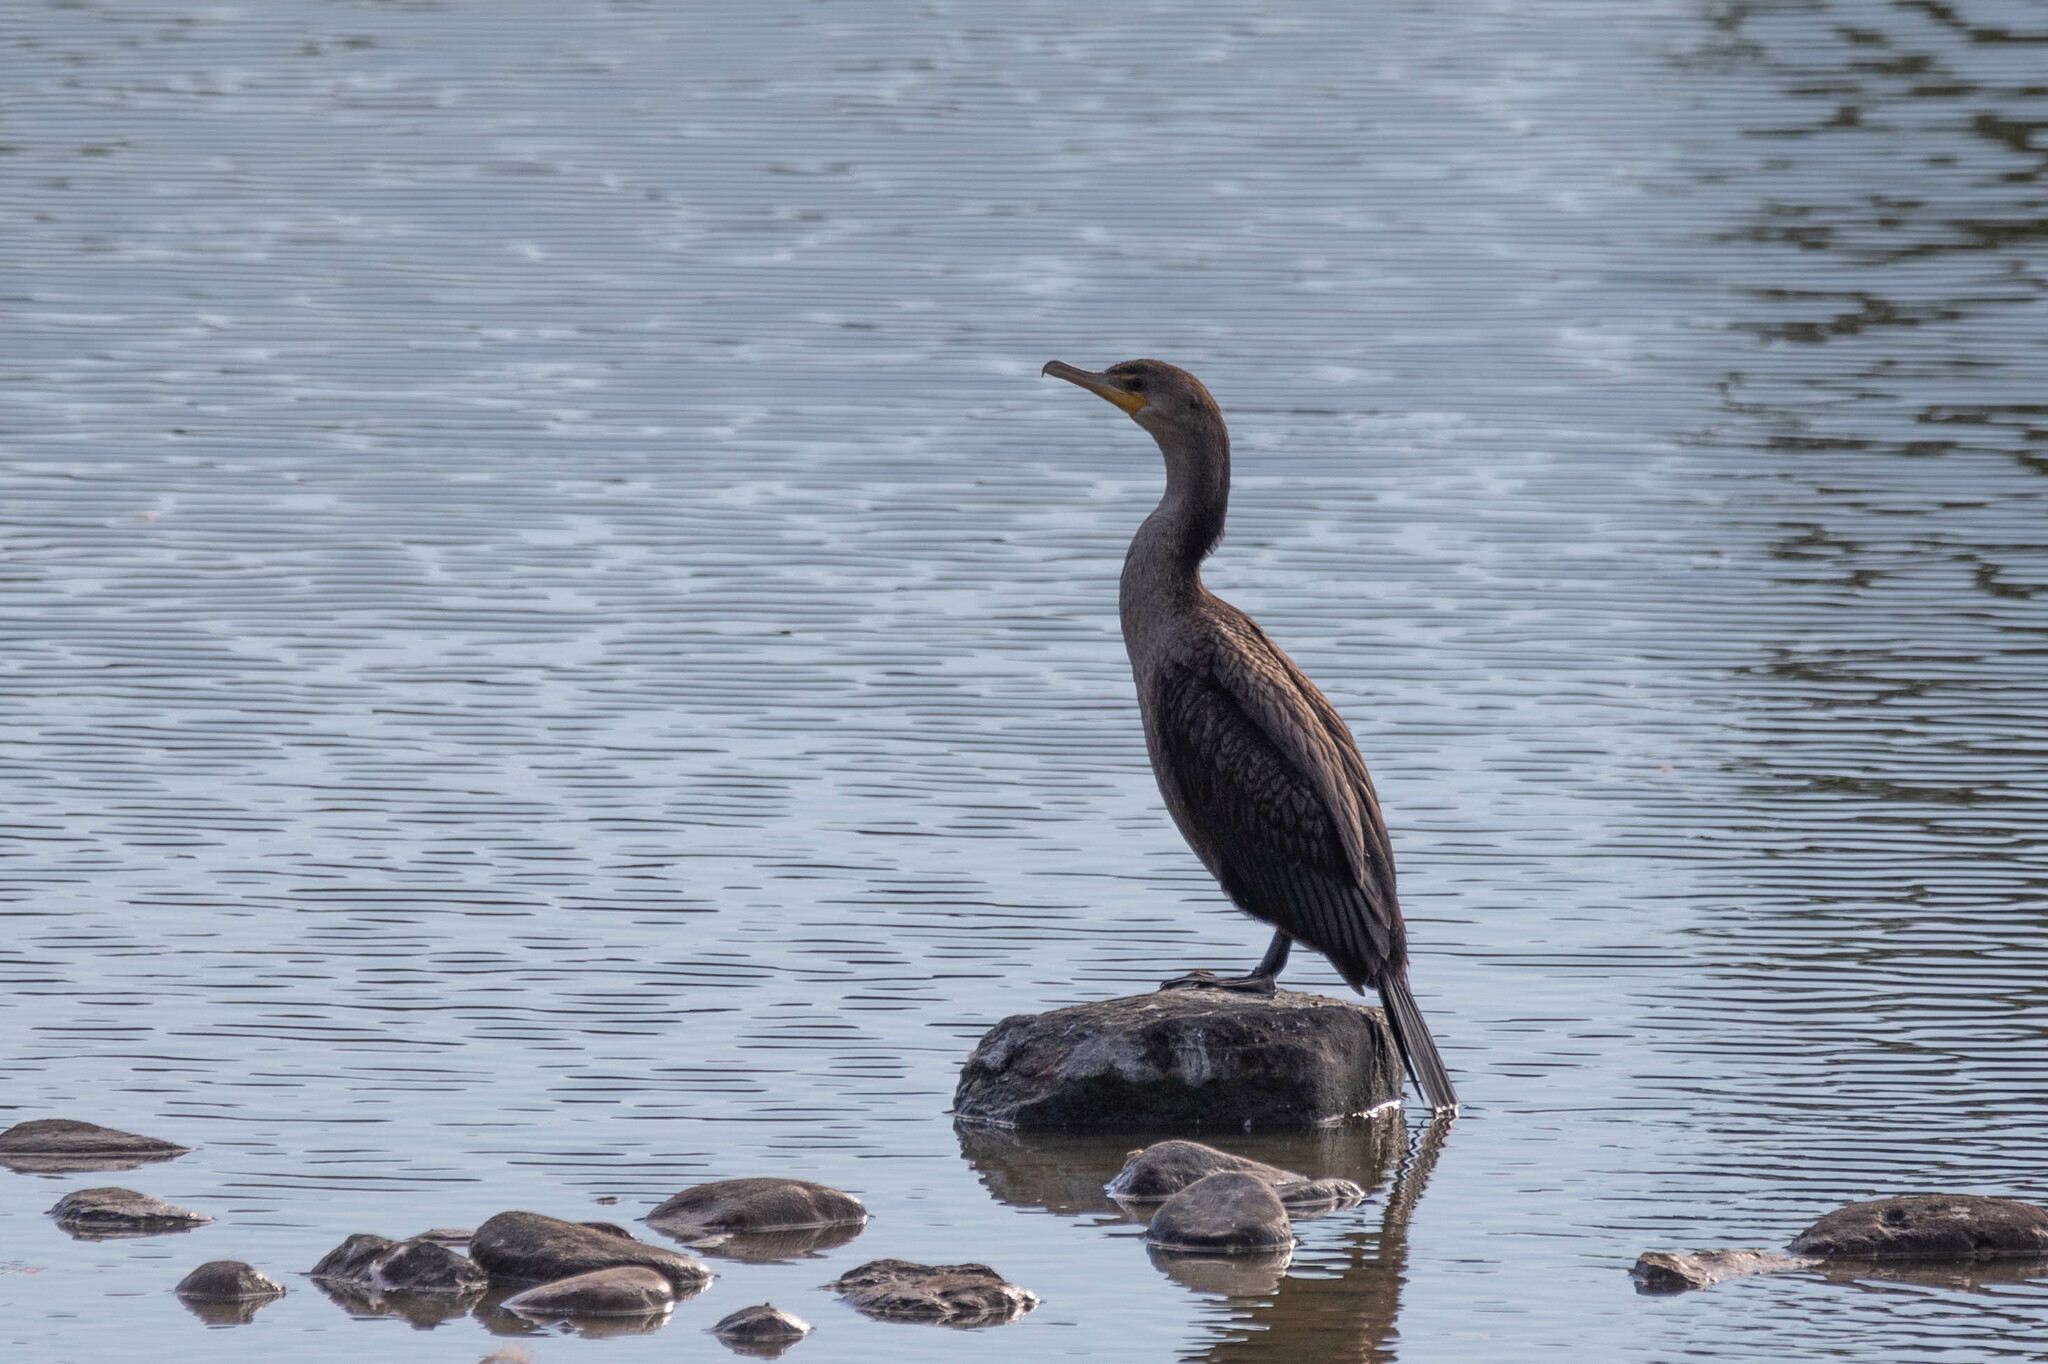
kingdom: Animalia
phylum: Chordata
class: Aves
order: Suliformes
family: Phalacrocoracidae
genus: Phalacrocorax
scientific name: Phalacrocorax auritus
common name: Double-crested cormorant
